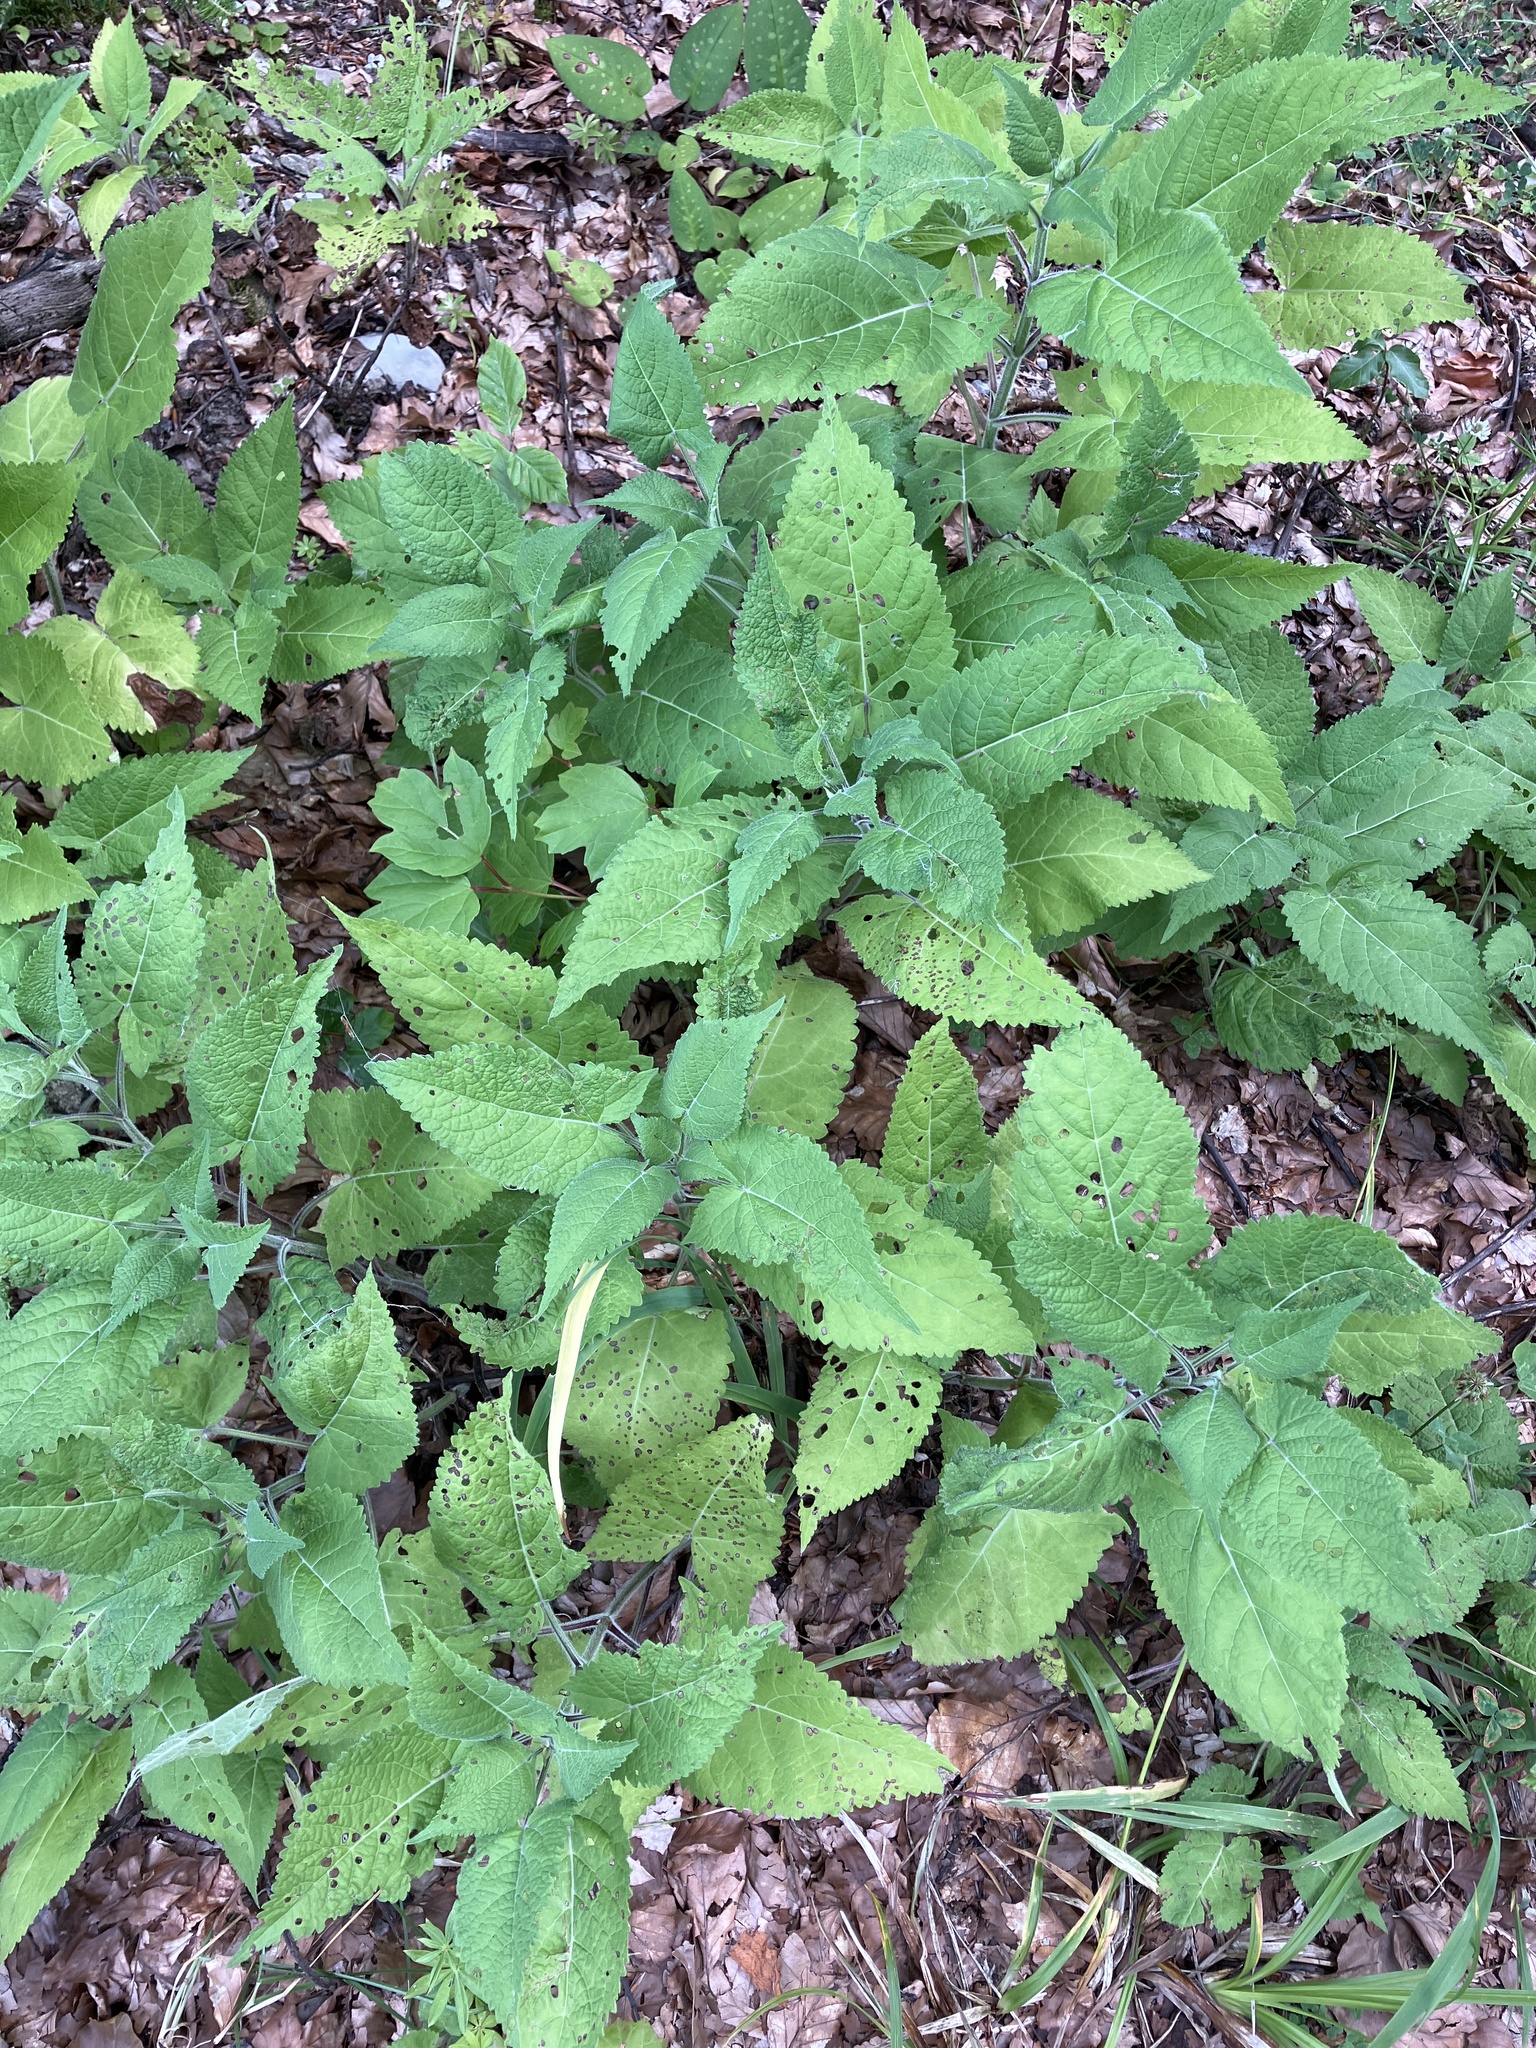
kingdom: Plantae
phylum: Tracheophyta
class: Magnoliopsida
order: Lamiales
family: Lamiaceae
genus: Salvia
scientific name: Salvia glutinosa
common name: Sticky clary
